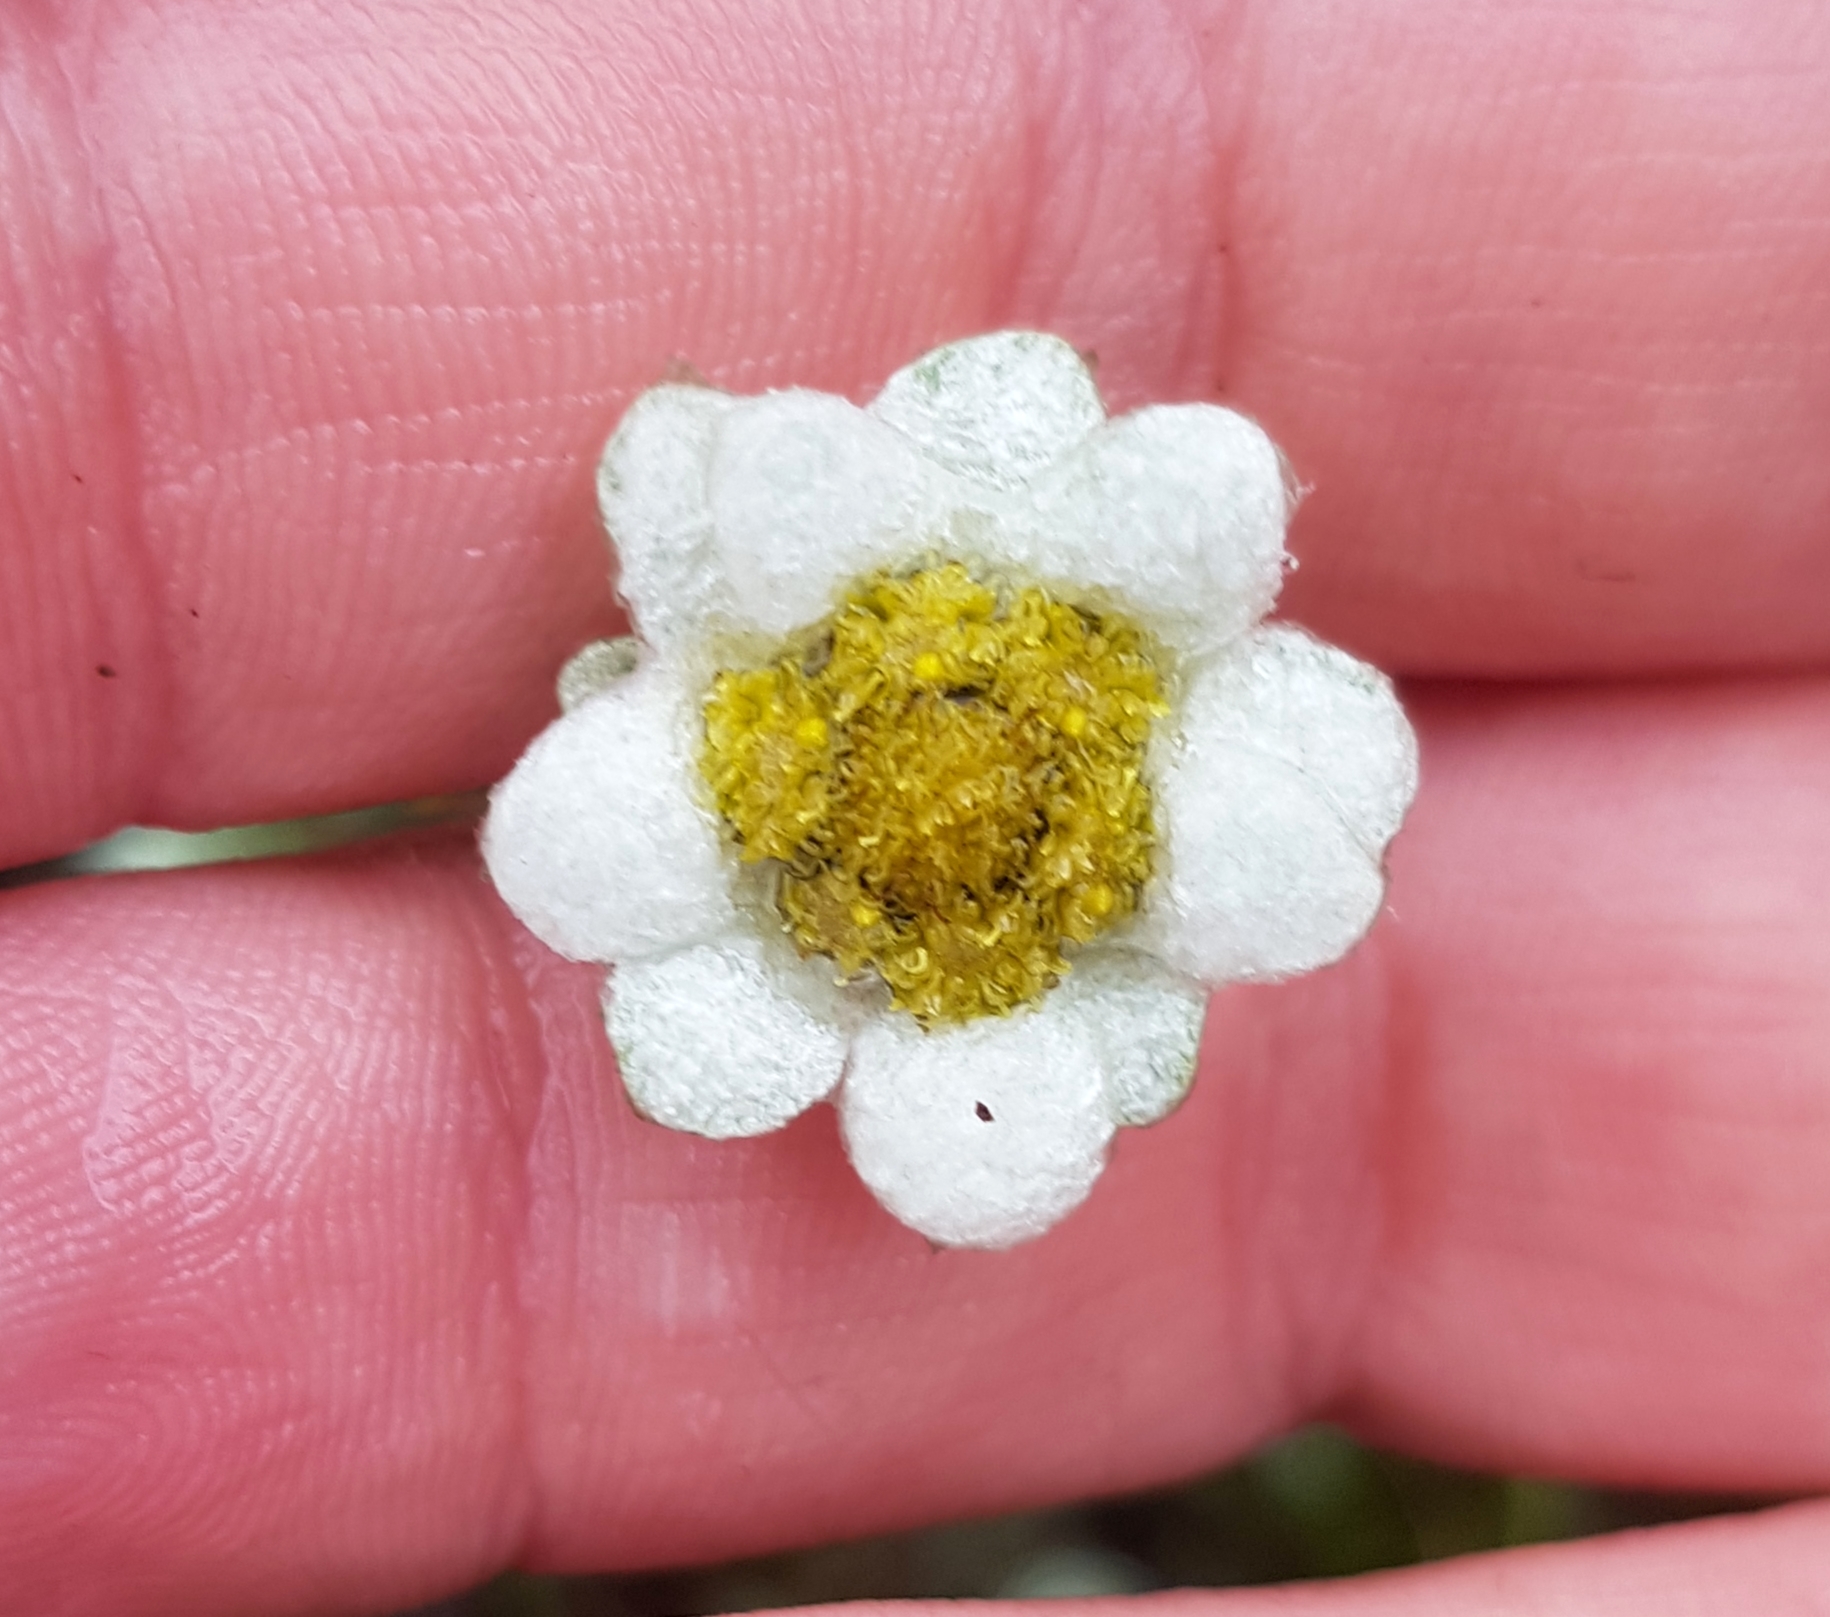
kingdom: Plantae
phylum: Tracheophyta
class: Magnoliopsida
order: Asterales
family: Asteraceae
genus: Leucogenes
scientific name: Leucogenes grandiceps
